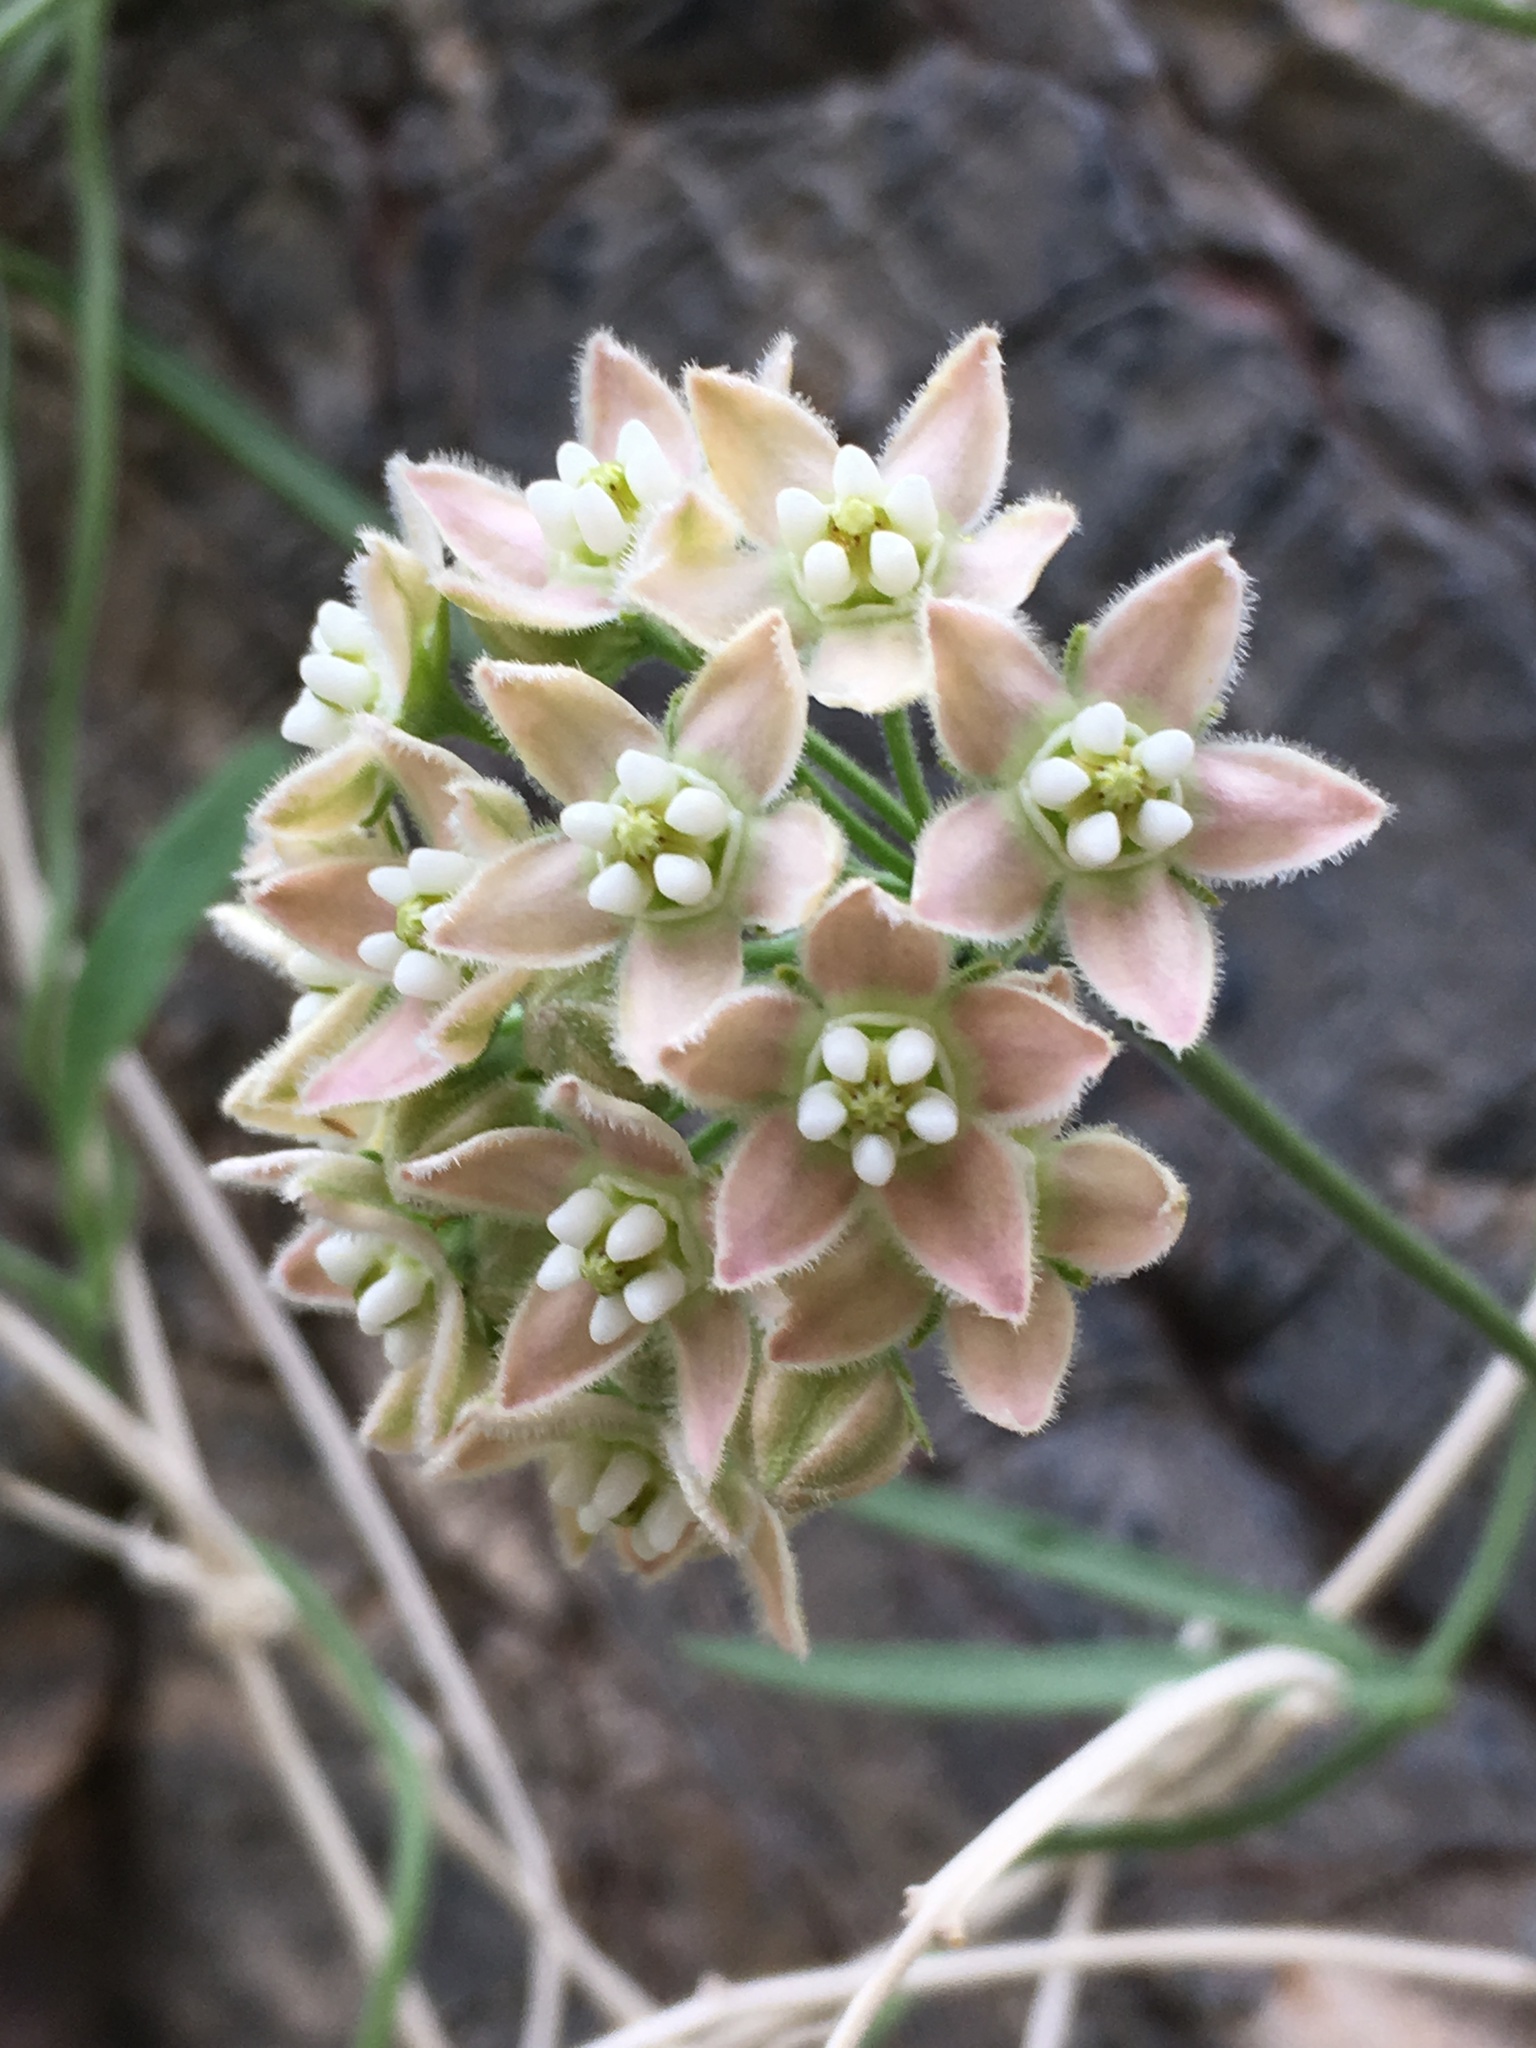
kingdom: Plantae
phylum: Tracheophyta
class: Magnoliopsida
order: Gentianales
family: Apocynaceae
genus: Funastrum
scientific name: Funastrum hirtellum
